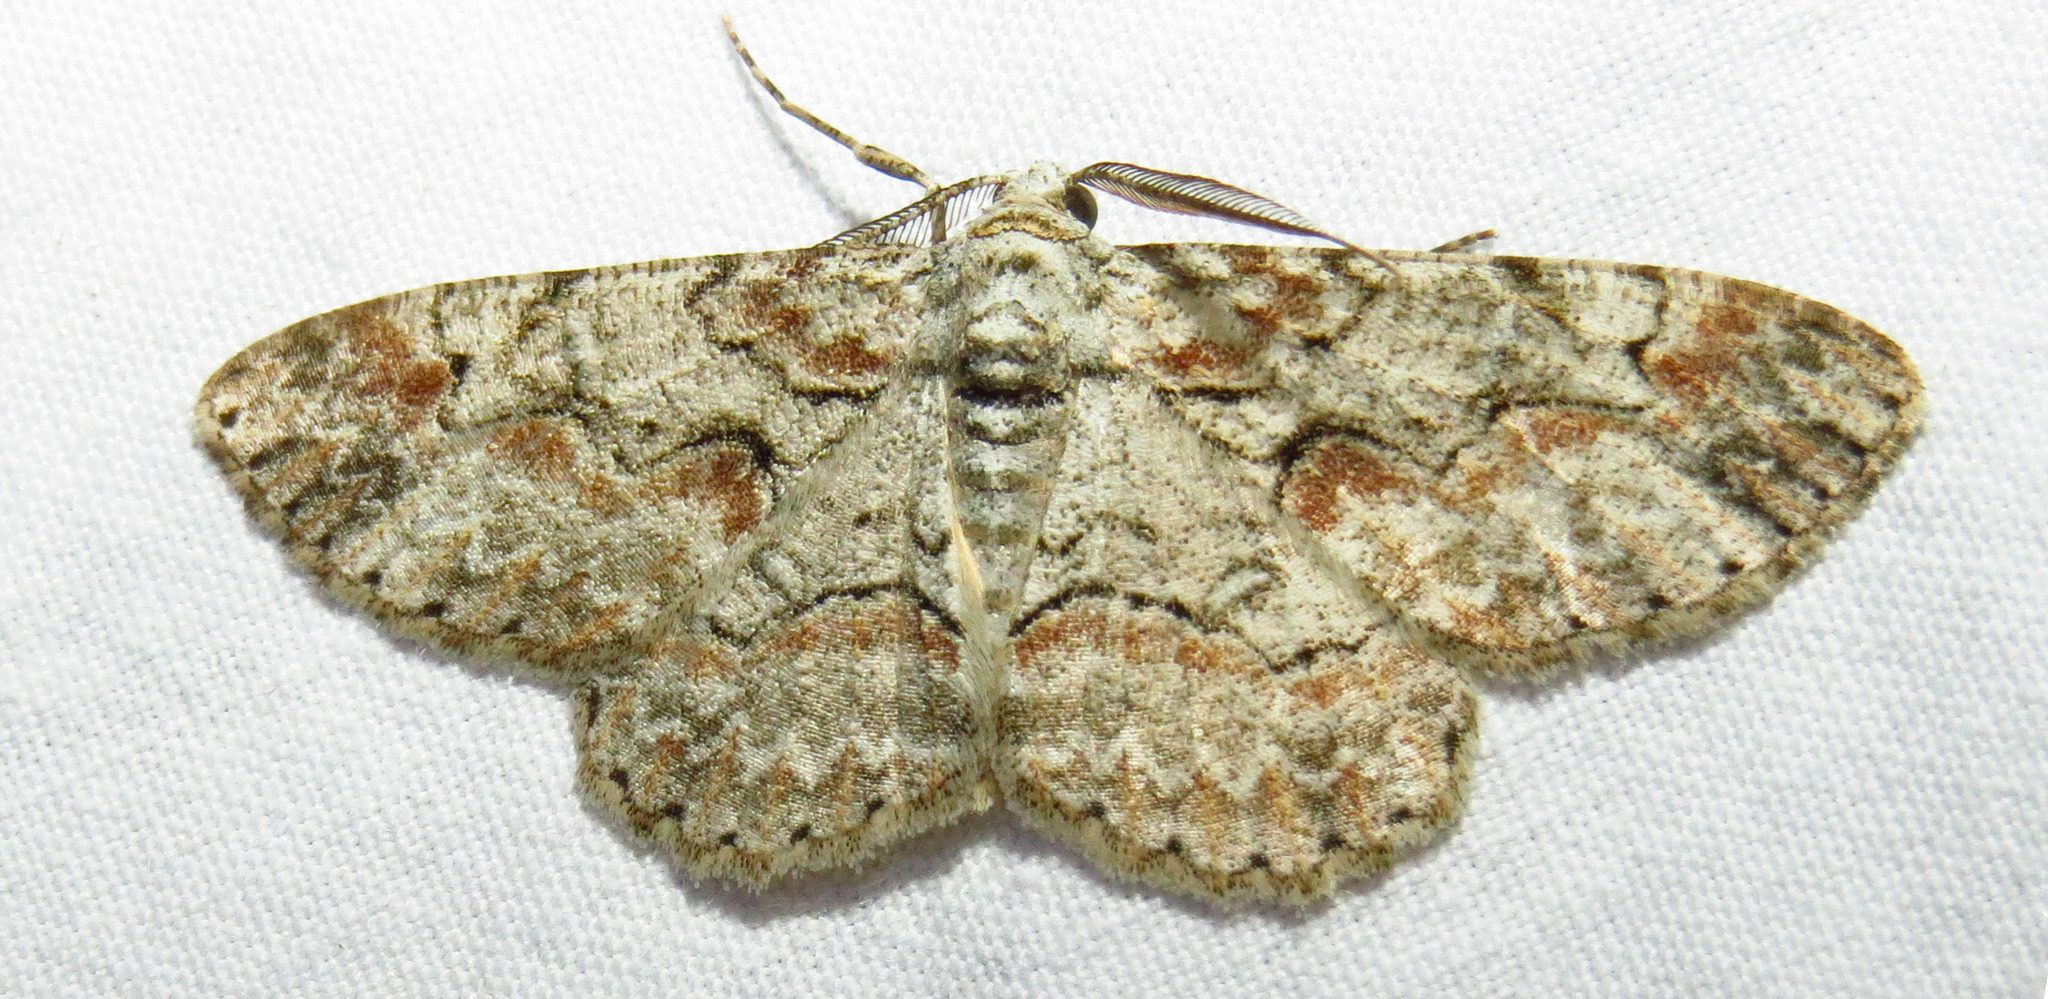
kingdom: Animalia
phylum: Arthropoda
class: Insecta
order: Lepidoptera
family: Geometridae
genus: Iridopsis
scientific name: Iridopsis defectaria
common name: Brown-shaded gray
